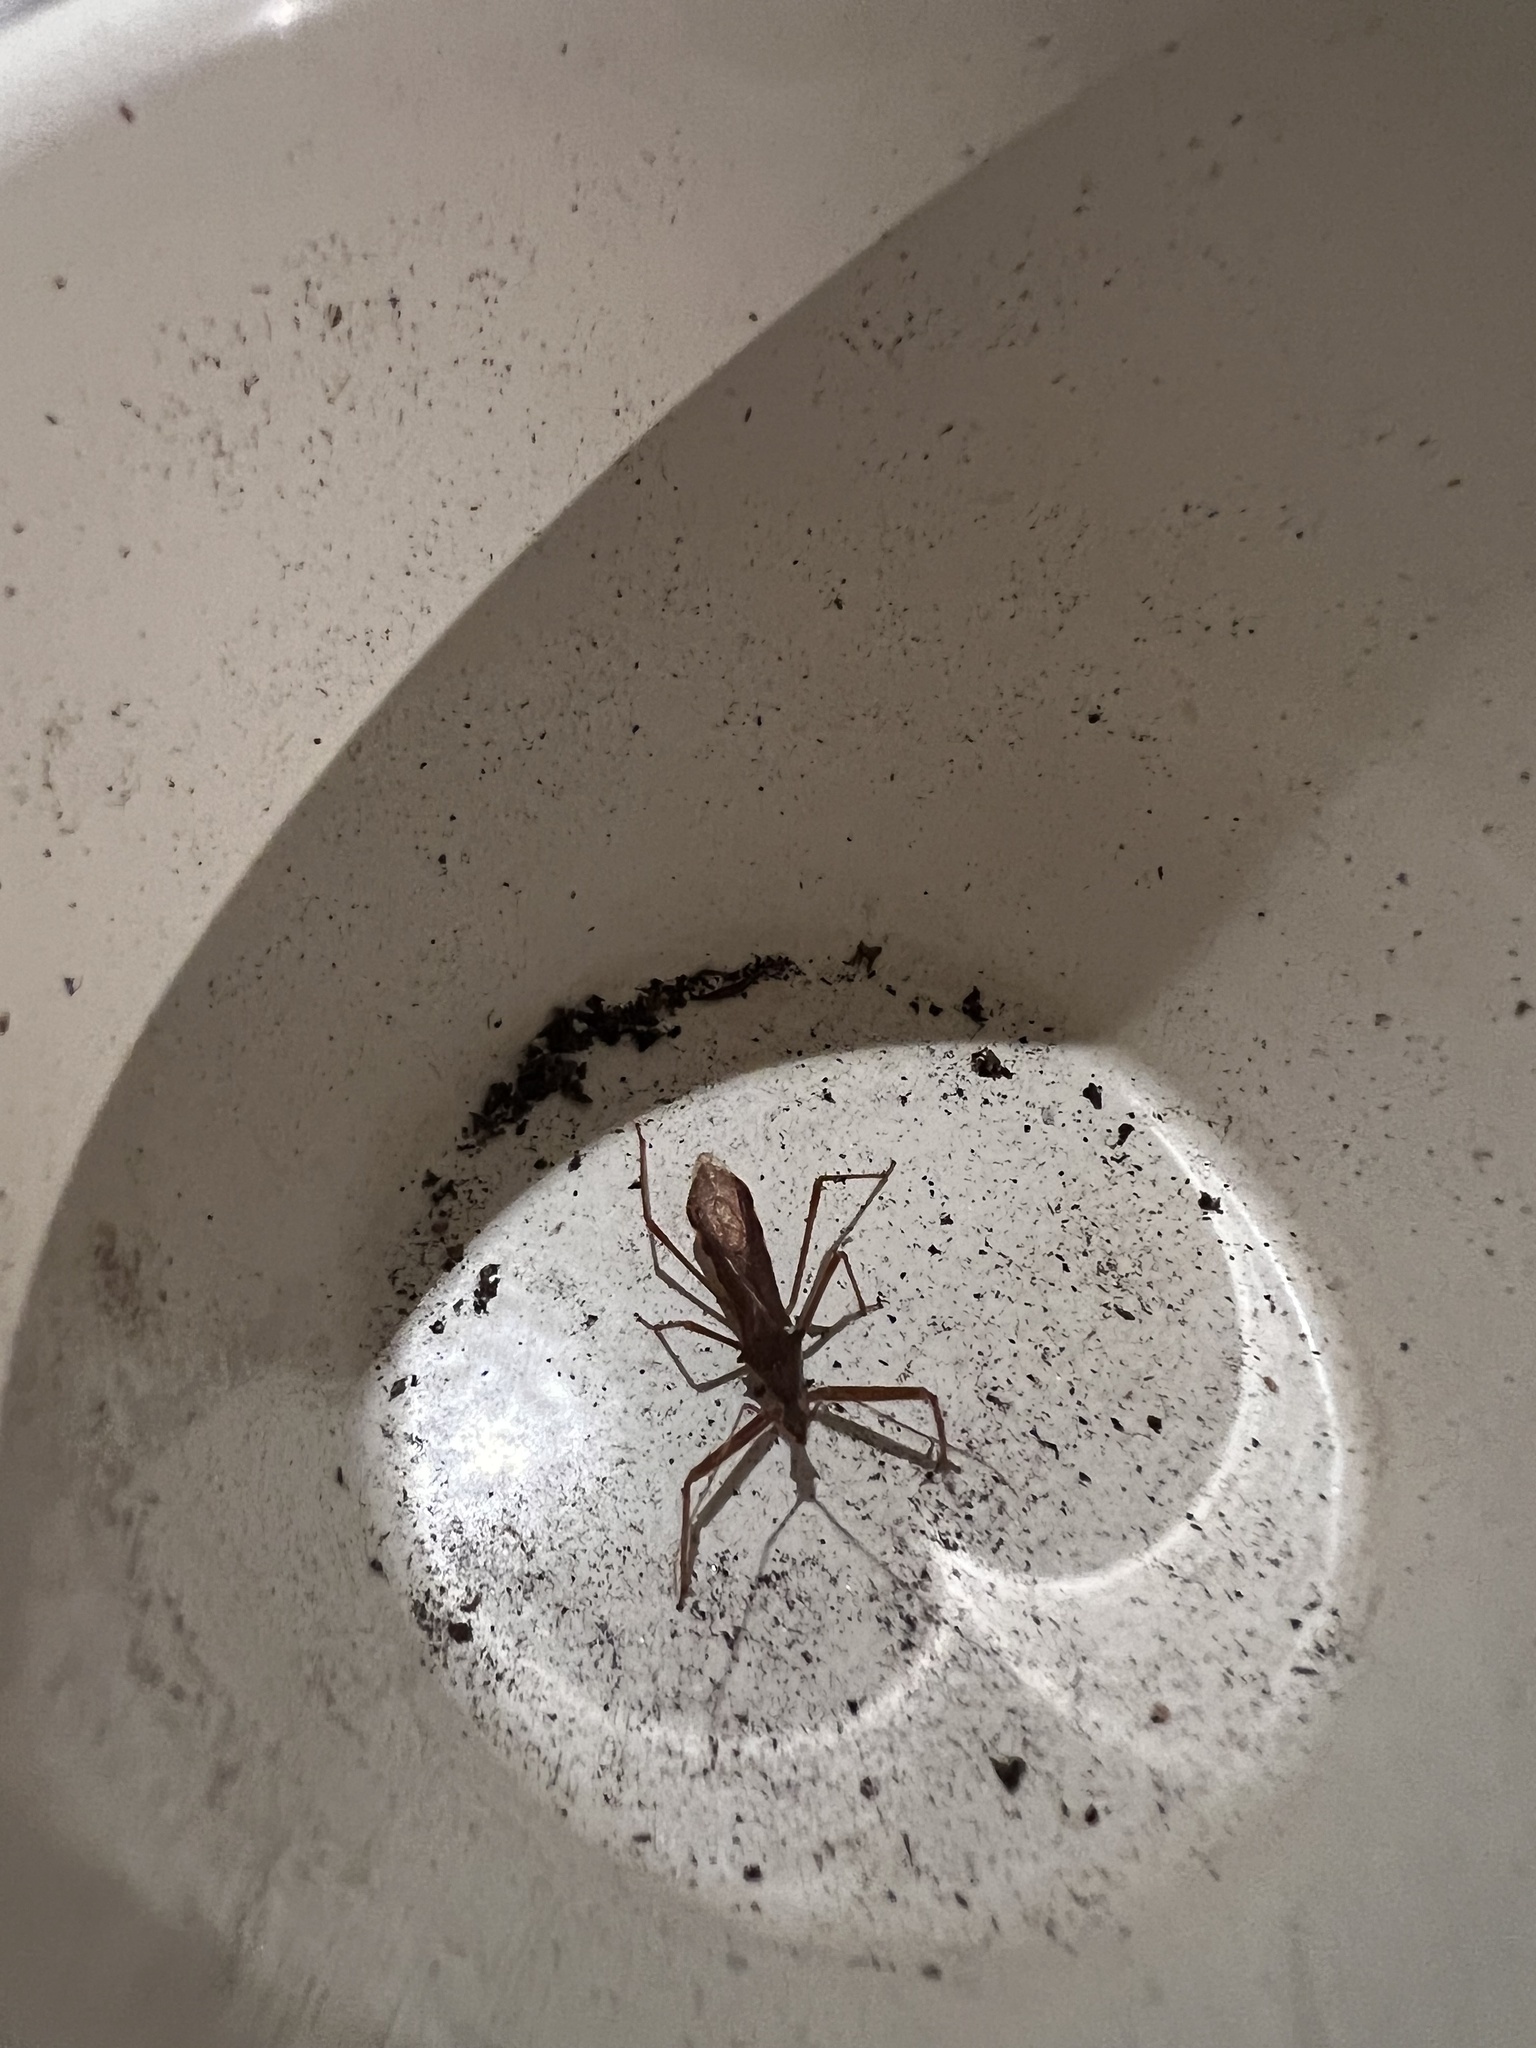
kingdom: Animalia
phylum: Arthropoda
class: Insecta
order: Hemiptera
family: Reduviidae
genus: Nagusta
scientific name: Nagusta goedelii
